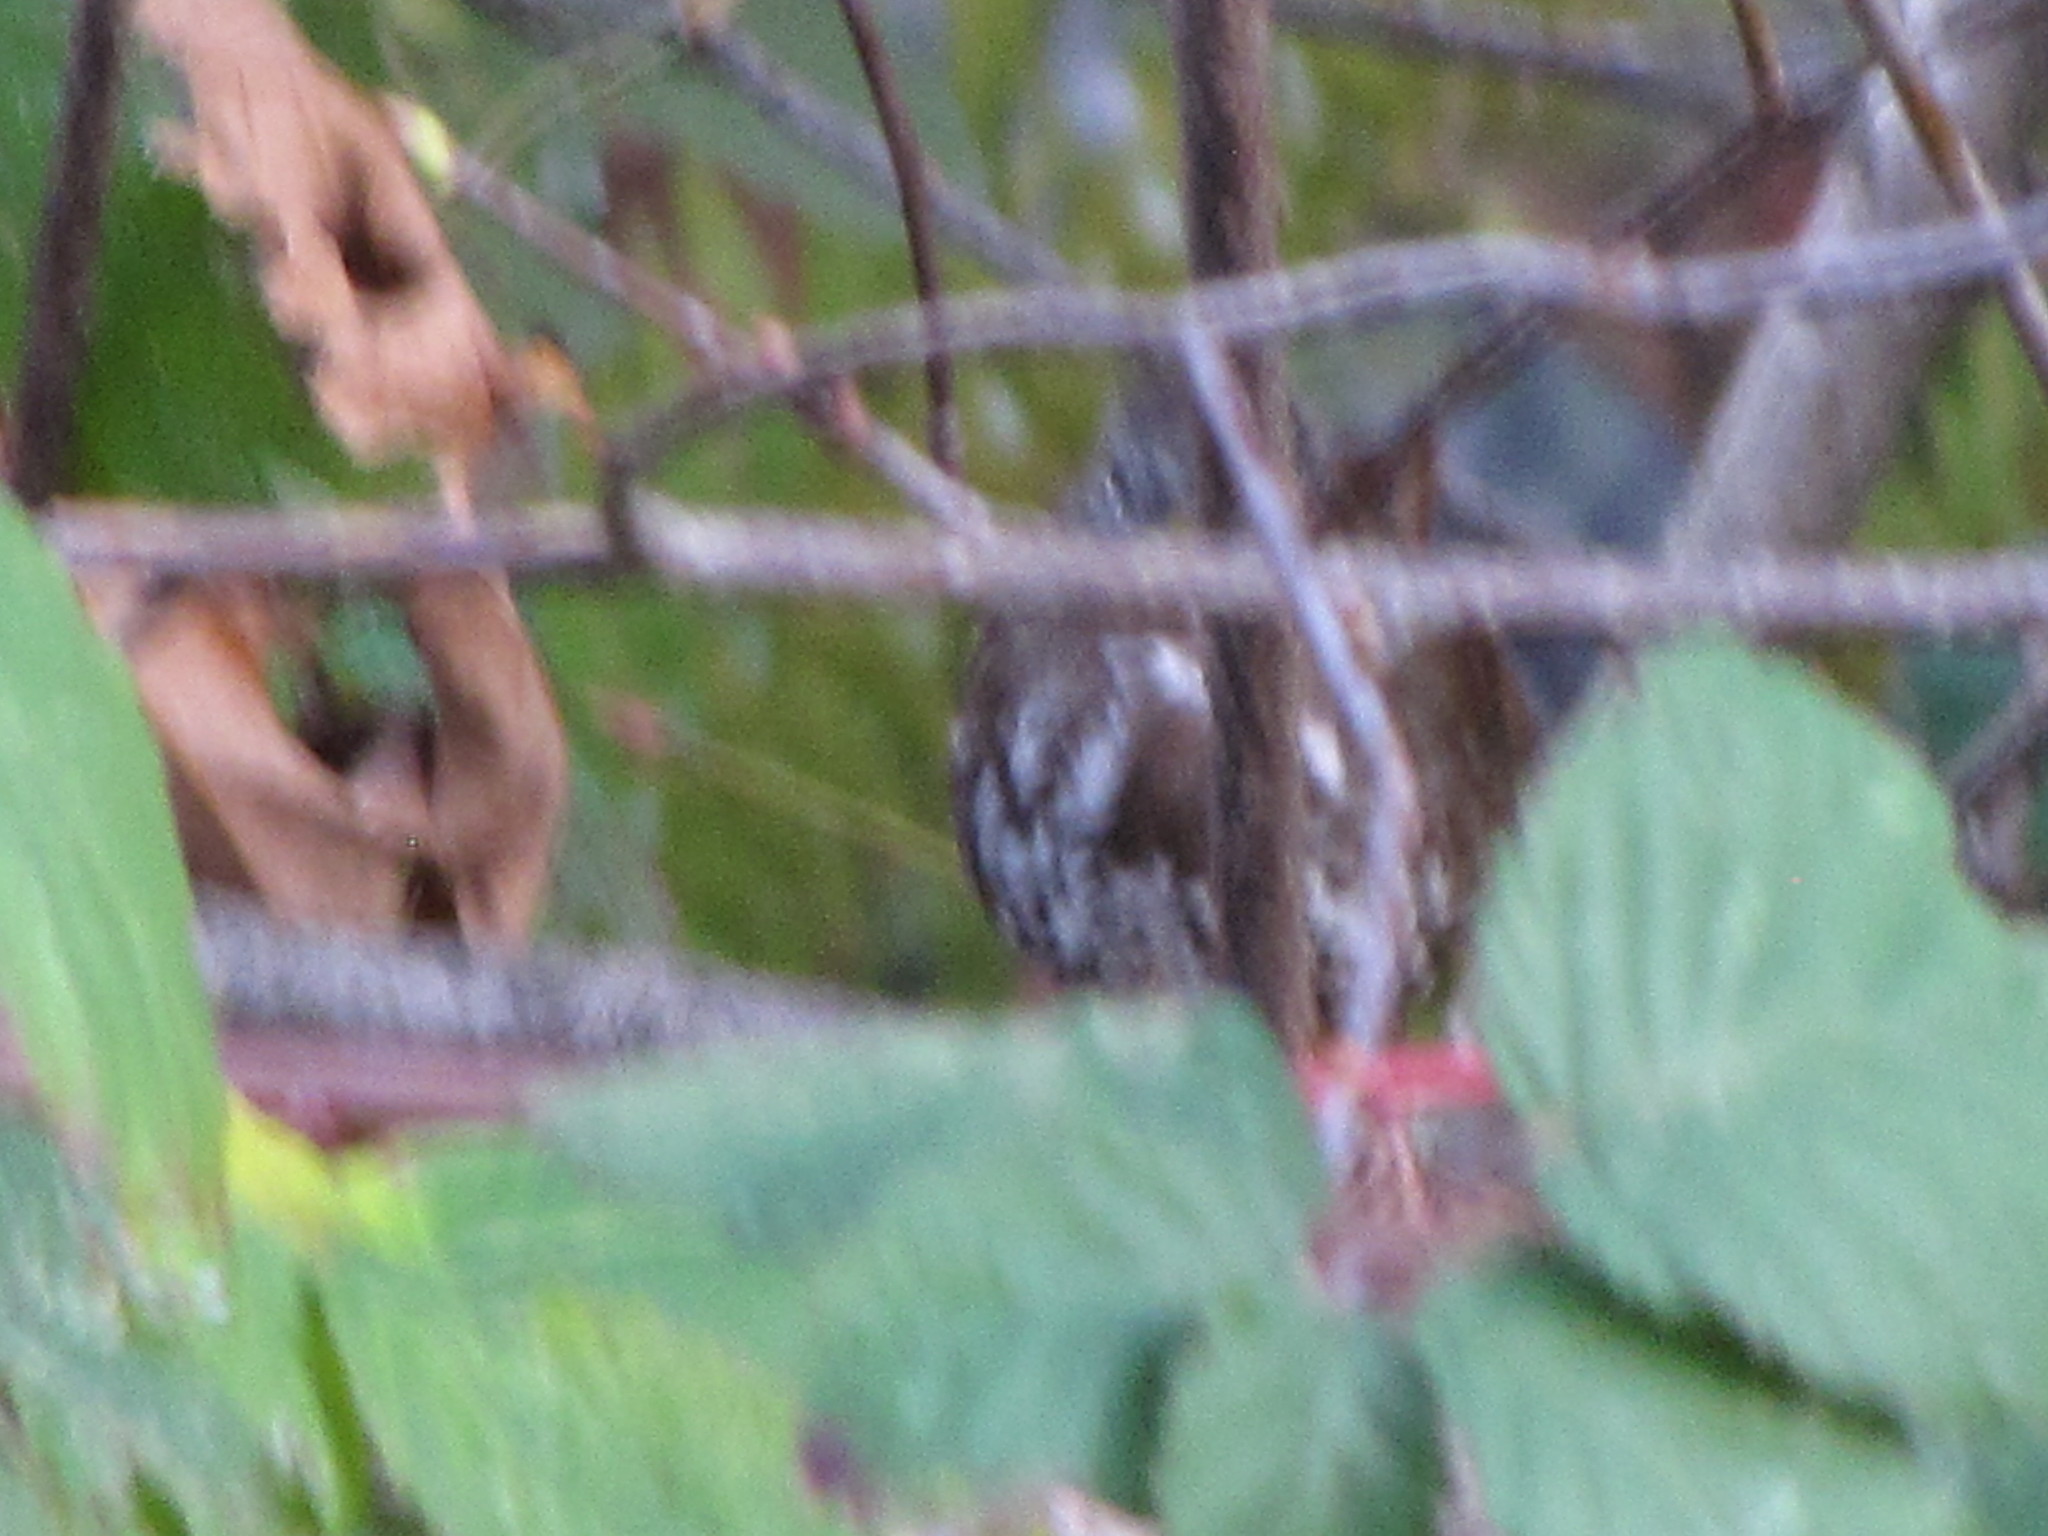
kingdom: Animalia
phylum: Chordata
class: Aves
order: Passeriformes
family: Passerellidae
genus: Passerella
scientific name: Passerella iliaca
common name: Fox sparrow
